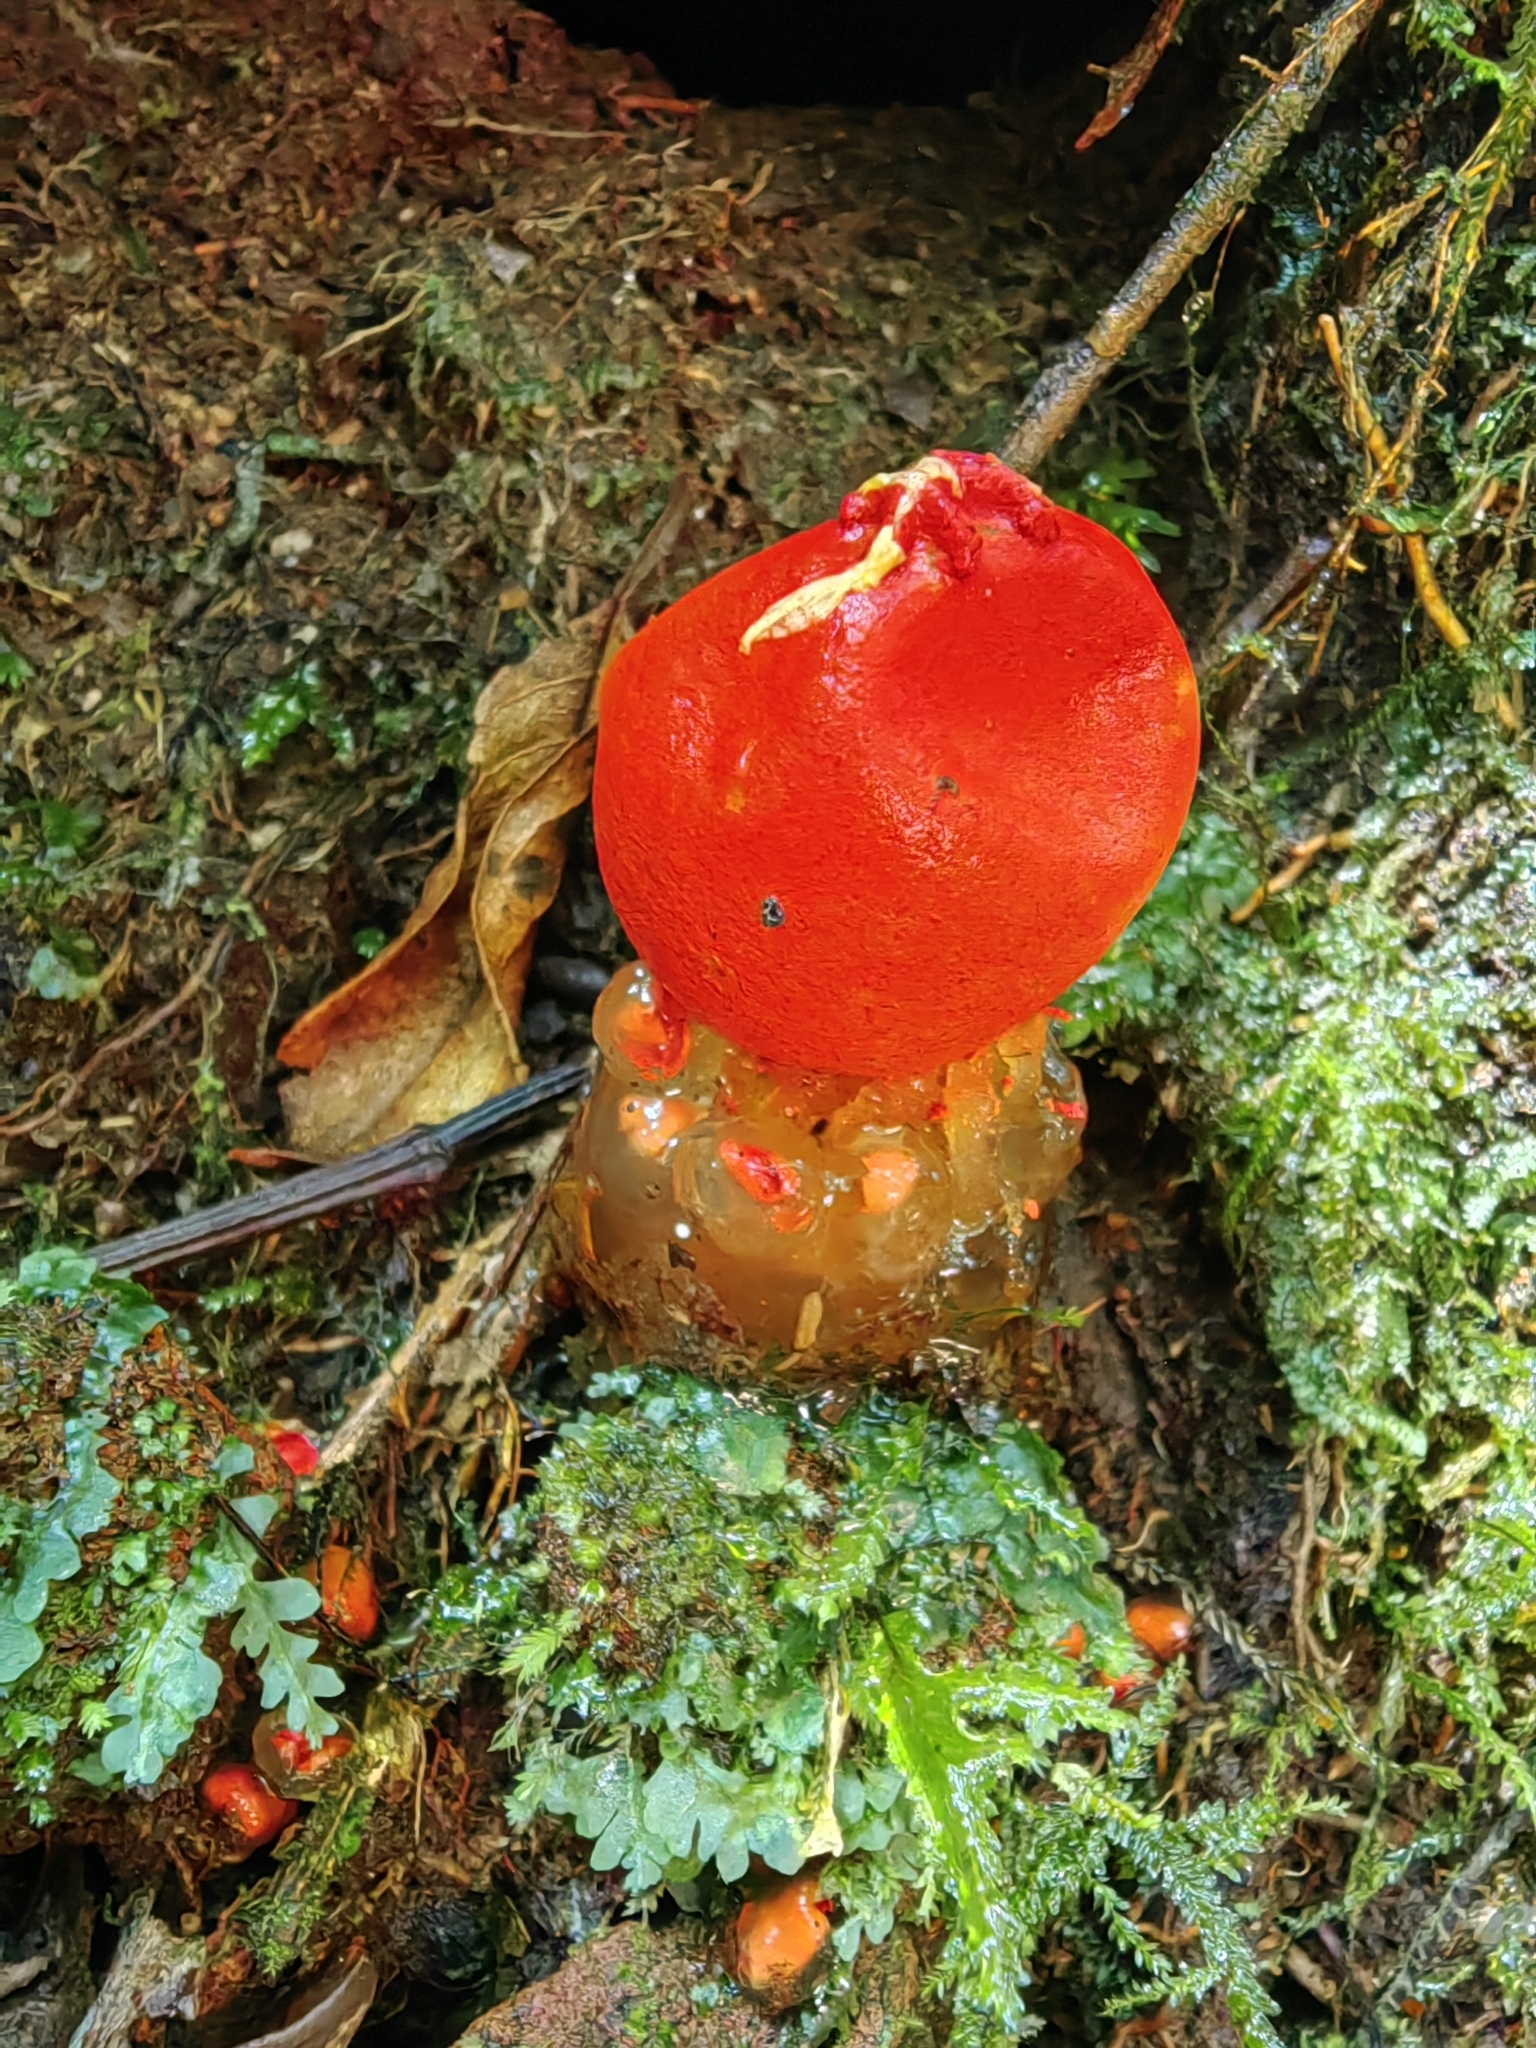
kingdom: Fungi
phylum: Basidiomycota
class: Agaricomycetes
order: Boletales
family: Calostomataceae
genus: Calostoma
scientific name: Calostoma cinnabarinum
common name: Stalked puffball-in-aspic
